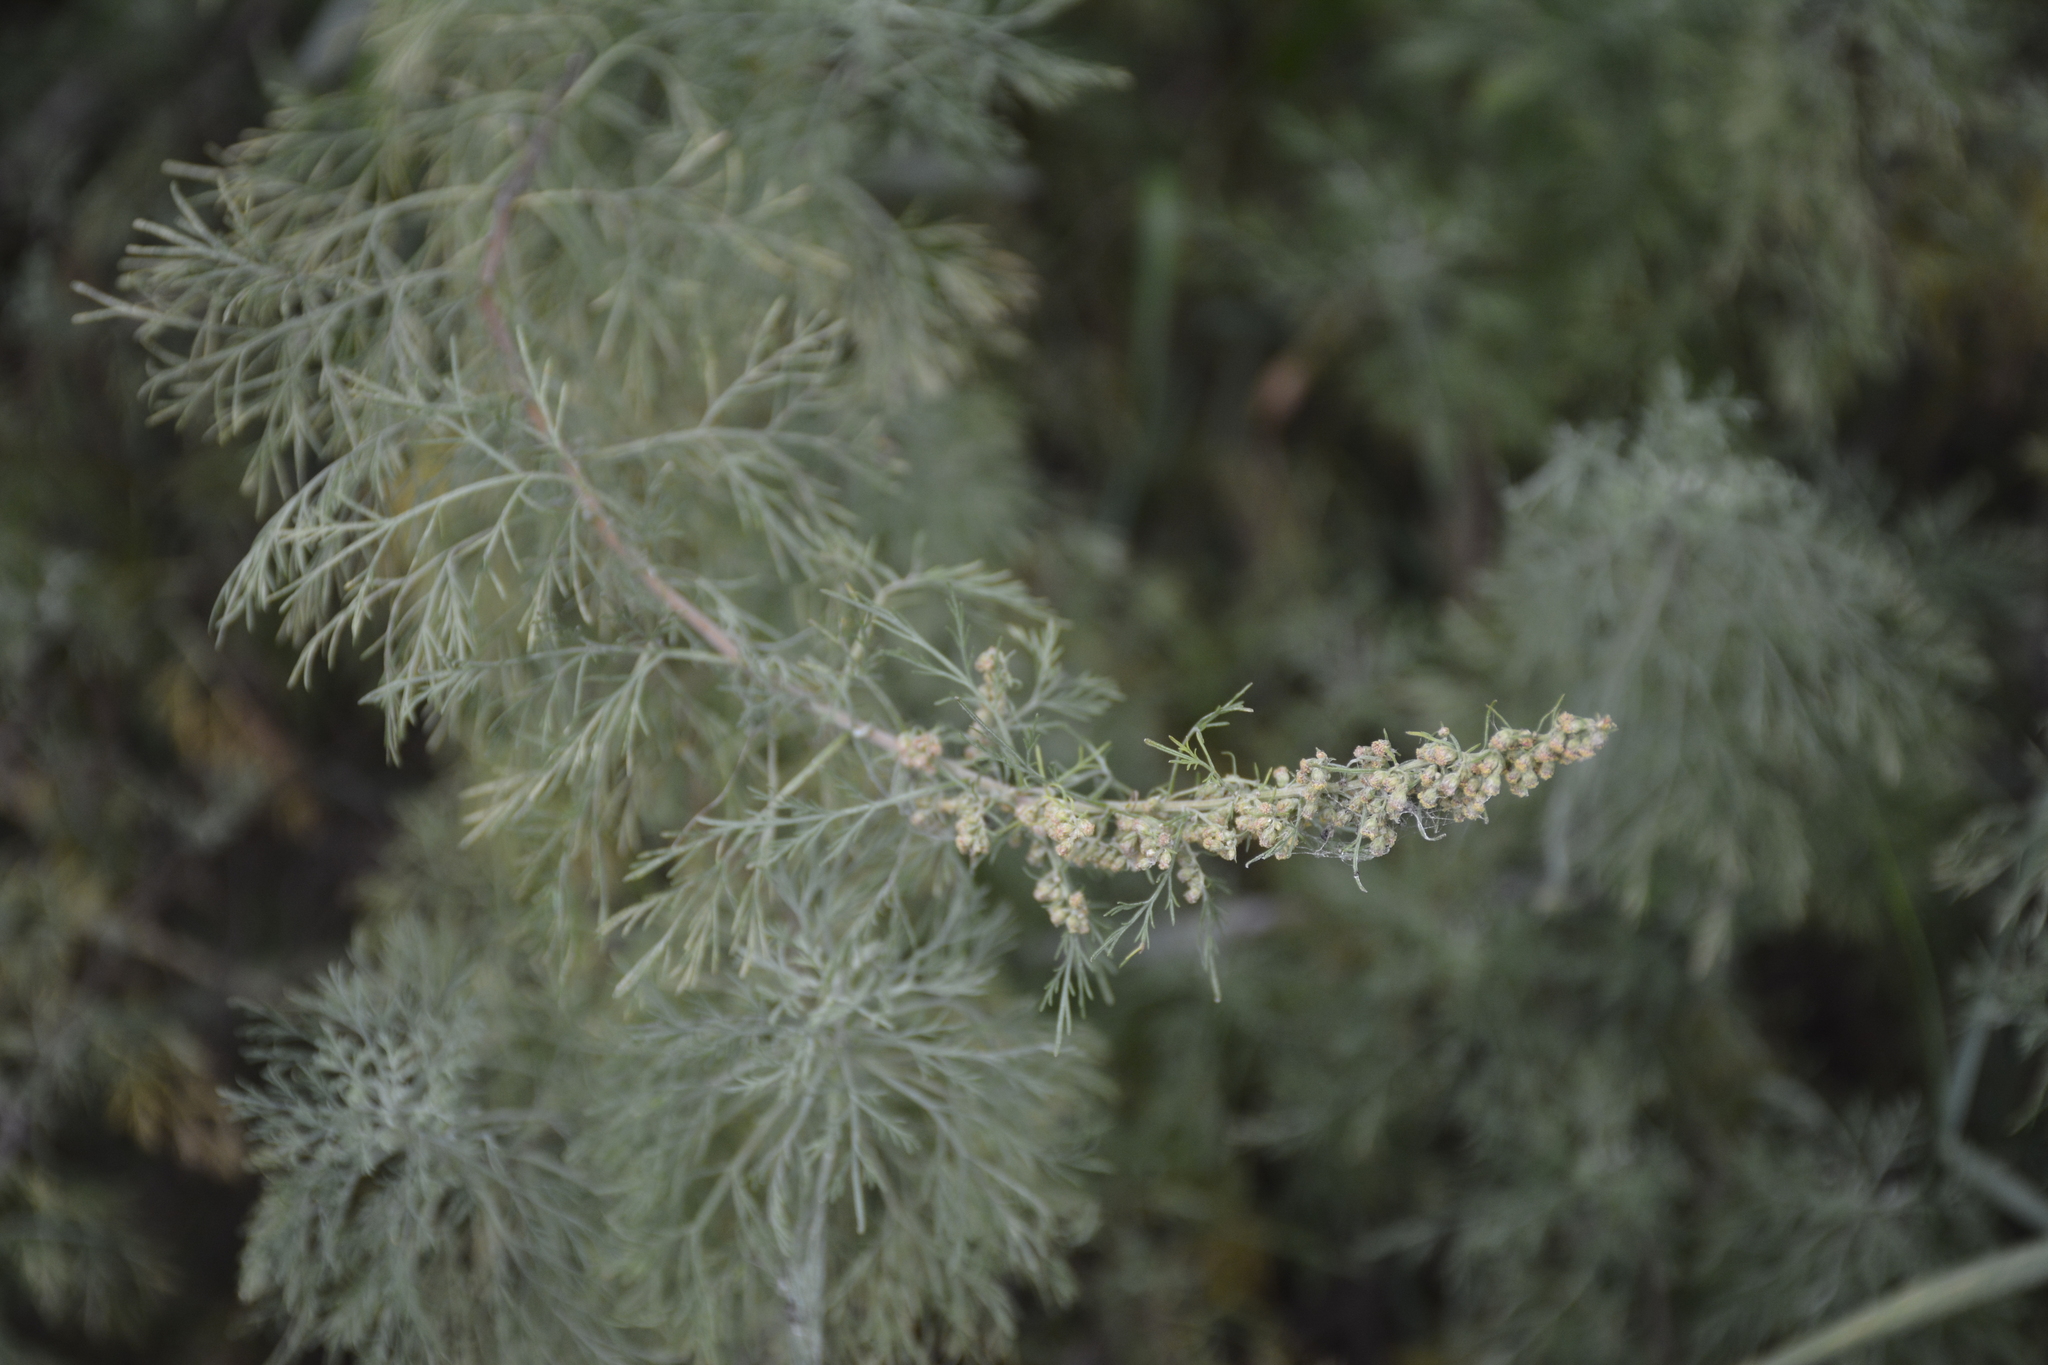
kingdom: Plantae
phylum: Tracheophyta
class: Magnoliopsida
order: Asterales
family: Asteraceae
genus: Artemisia
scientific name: Artemisia abrotanum
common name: Southernwood
